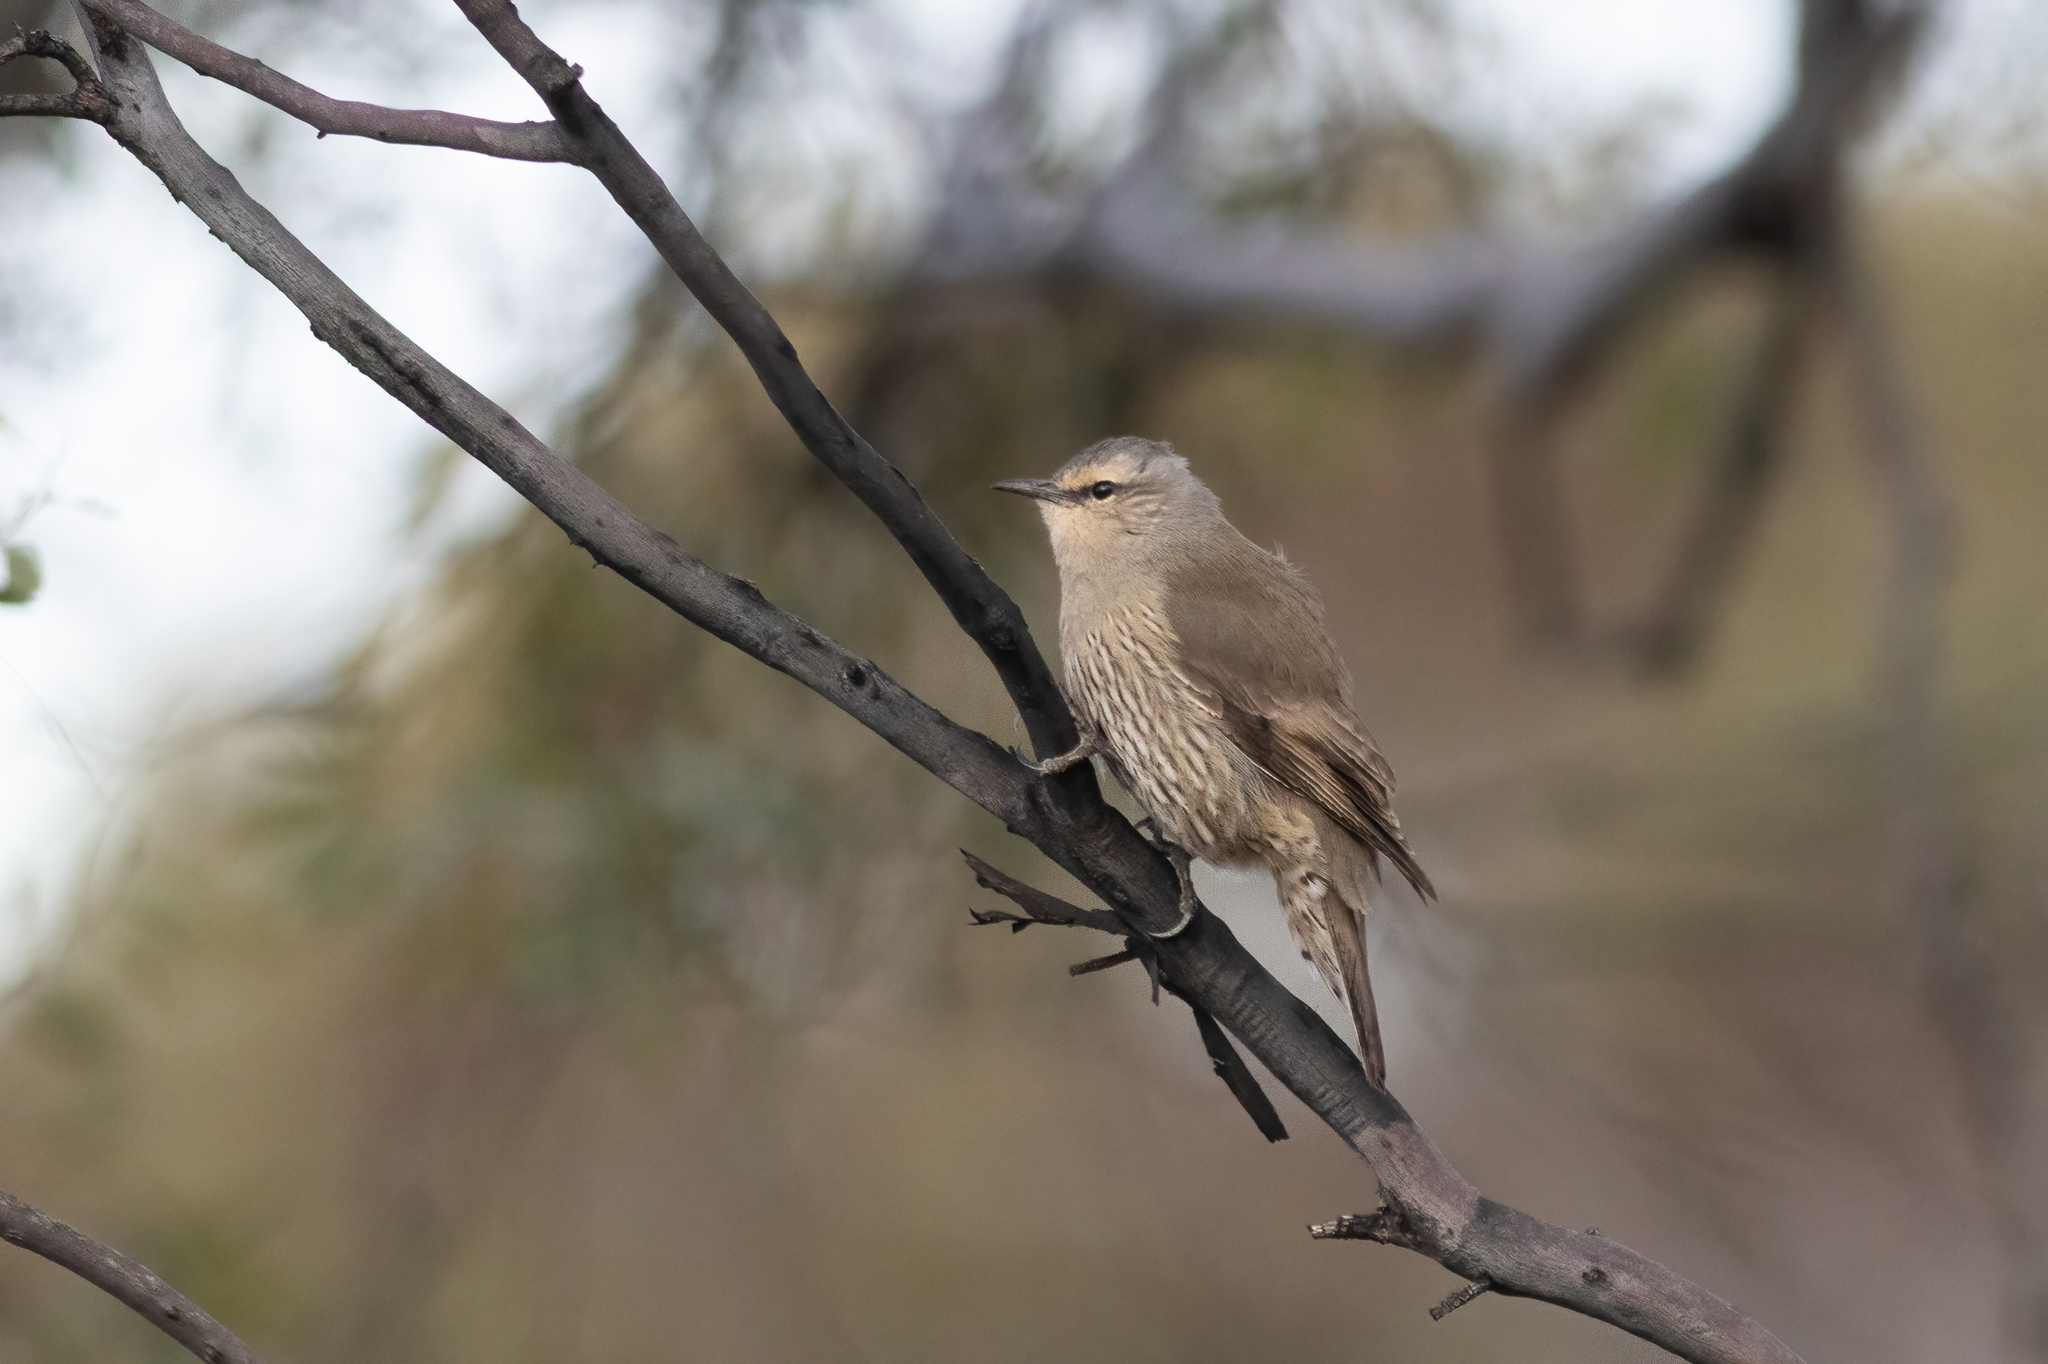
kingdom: Animalia
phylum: Chordata
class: Aves
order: Passeriformes
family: Climacteridae
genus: Climacteris
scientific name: Climacteris picumnus
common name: Brown treecreeper
